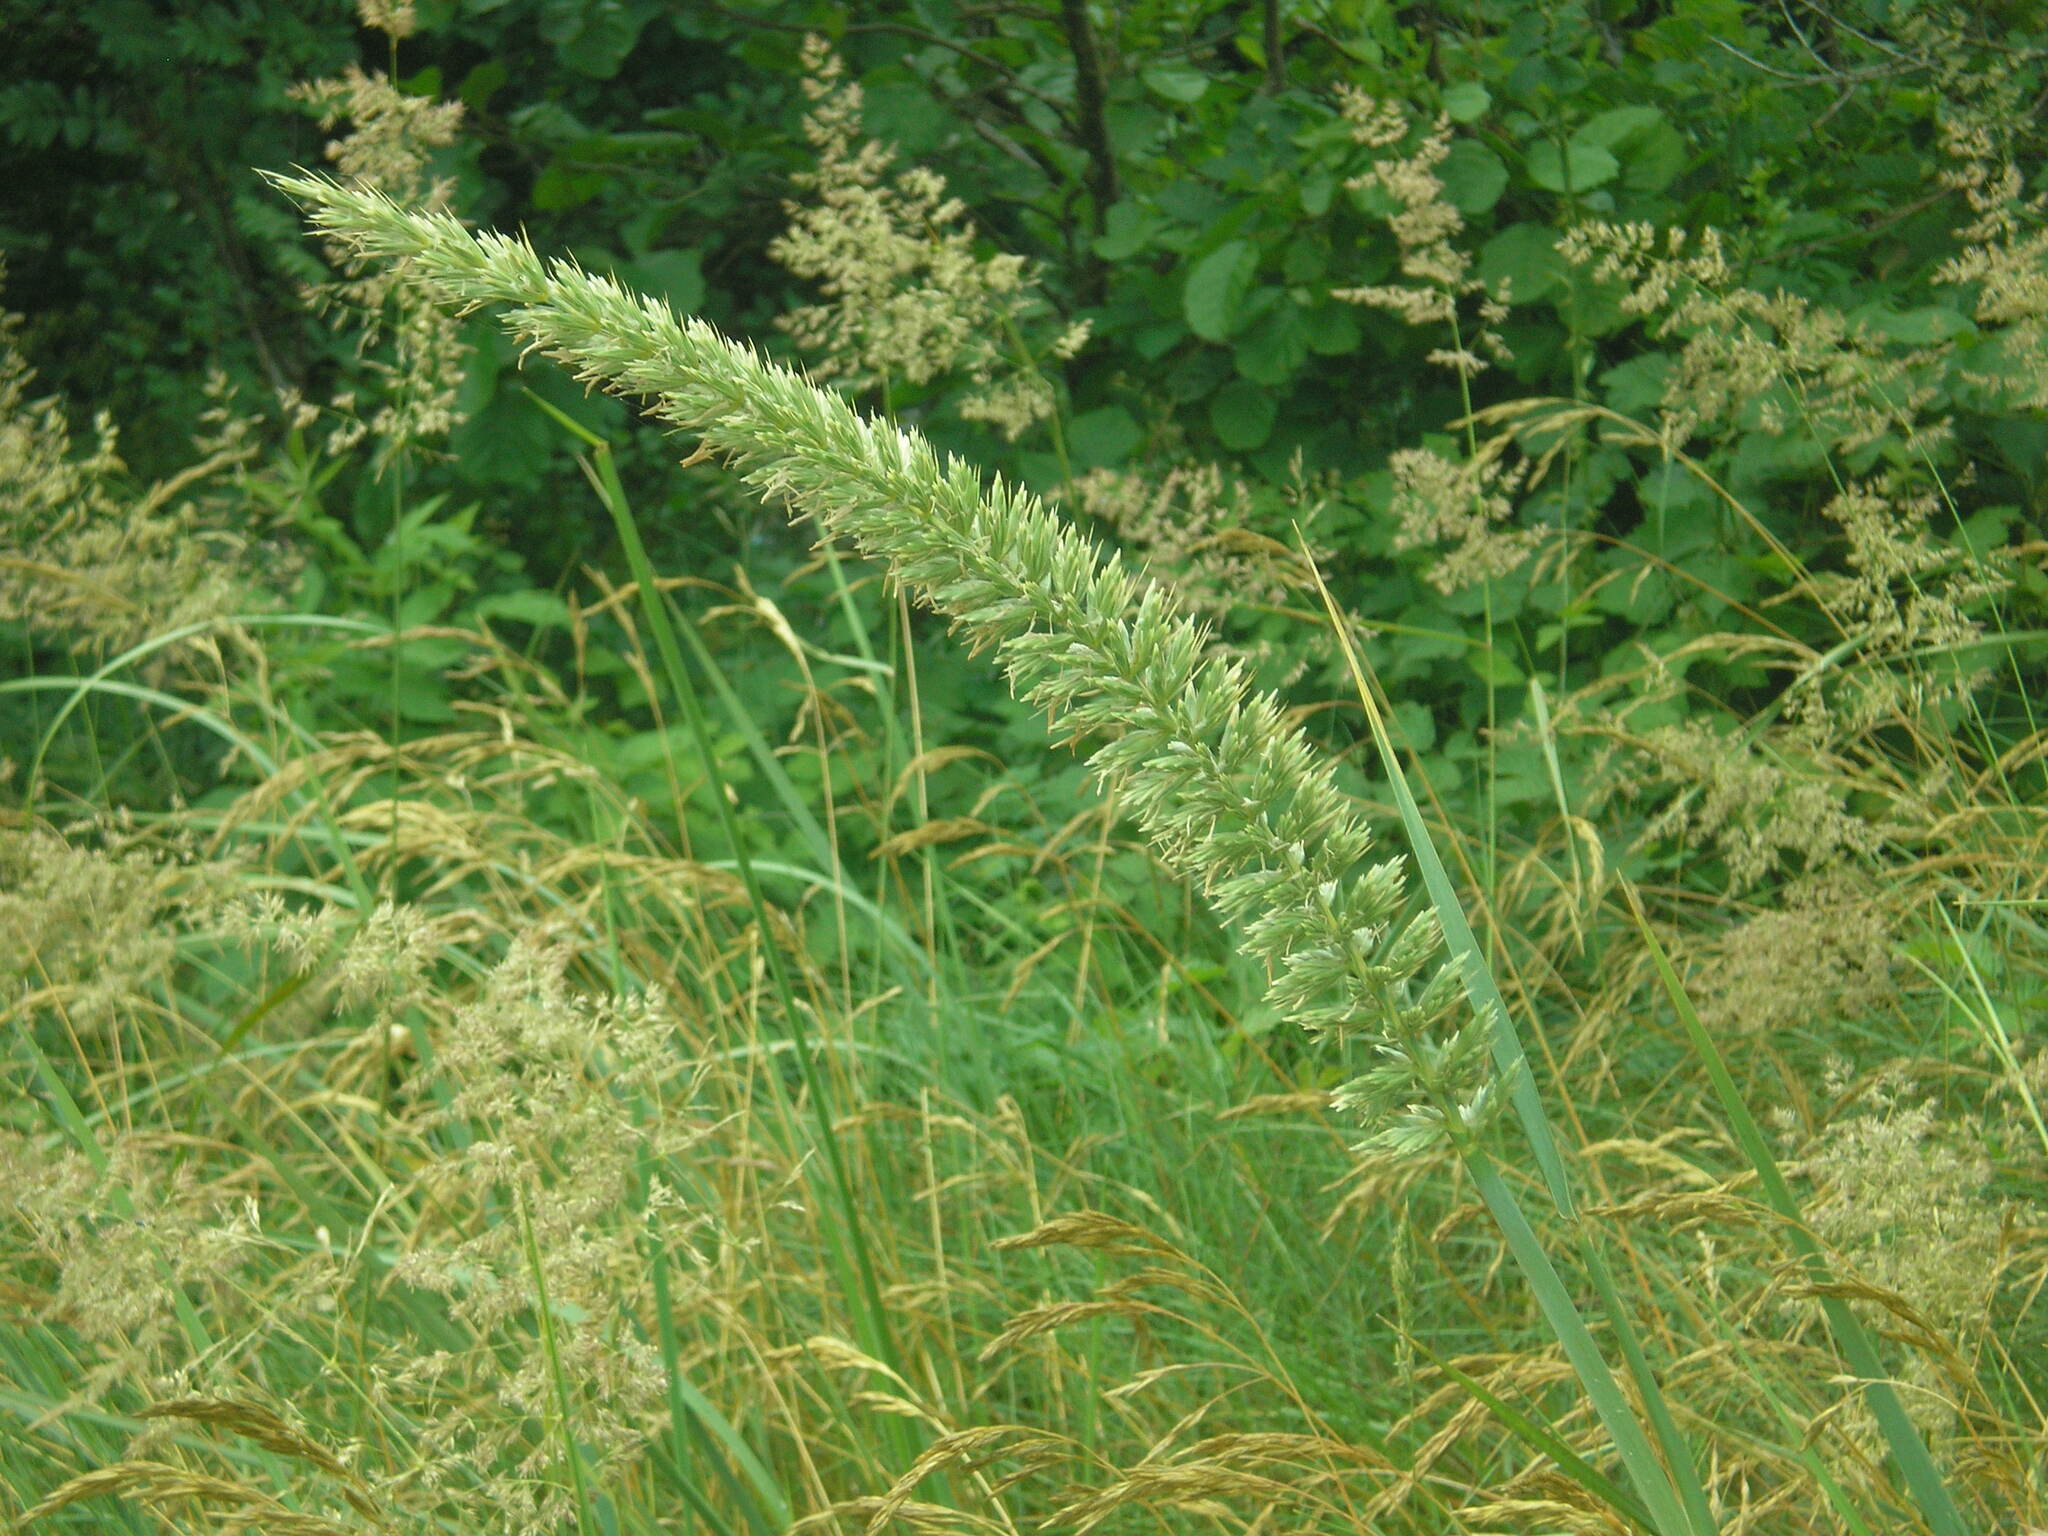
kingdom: Plantae
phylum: Tracheophyta
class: Liliopsida
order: Poales
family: Poaceae
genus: Calamagrostis
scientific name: Calamagrostis epigejos
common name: Wood small-reed
